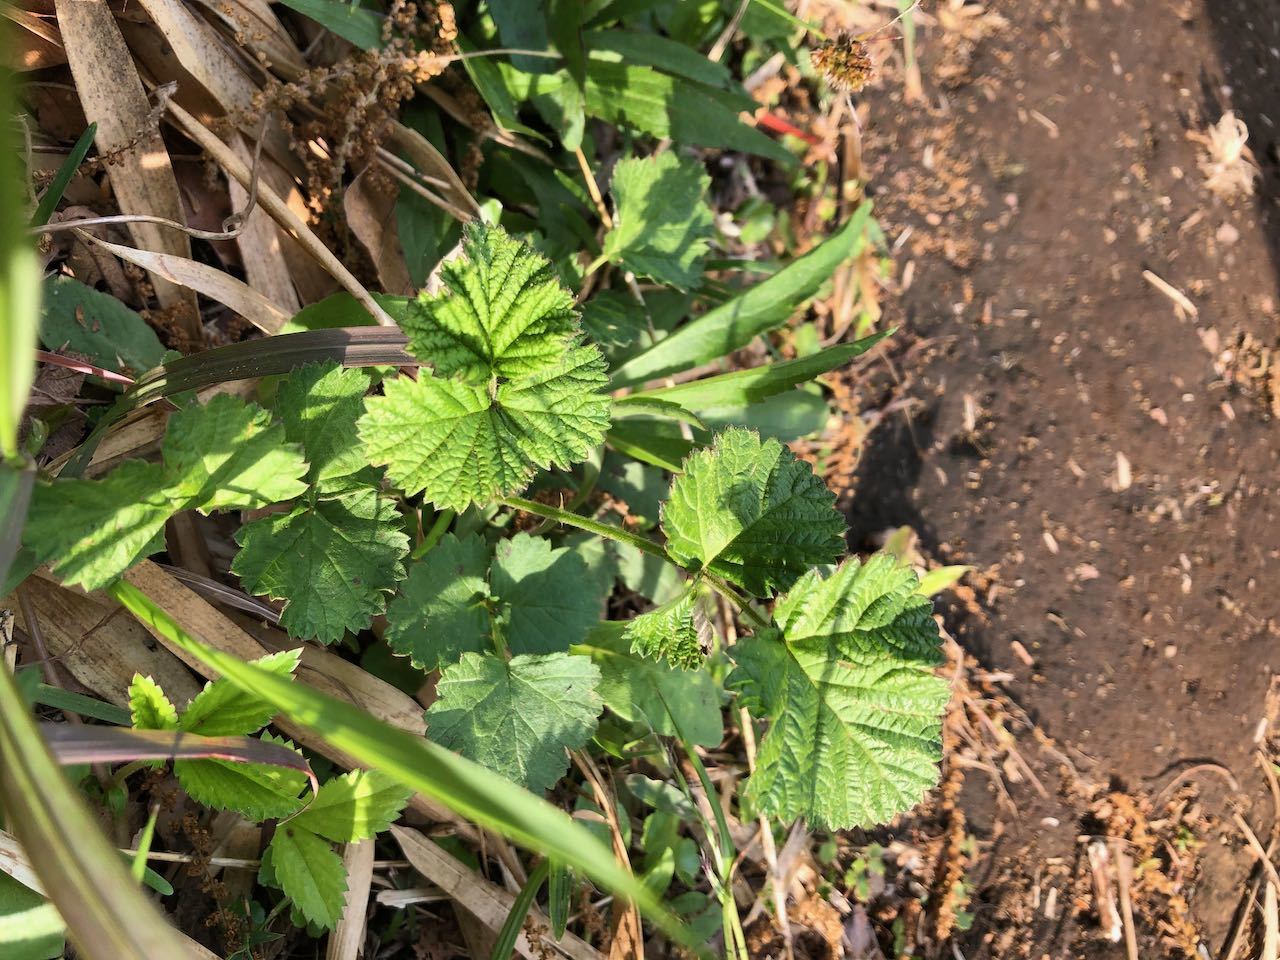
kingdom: Plantae
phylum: Tracheophyta
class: Magnoliopsida
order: Rosales
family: Rosaceae
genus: Rubus
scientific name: Rubus parvifolius
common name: Threeleaf blackberry
